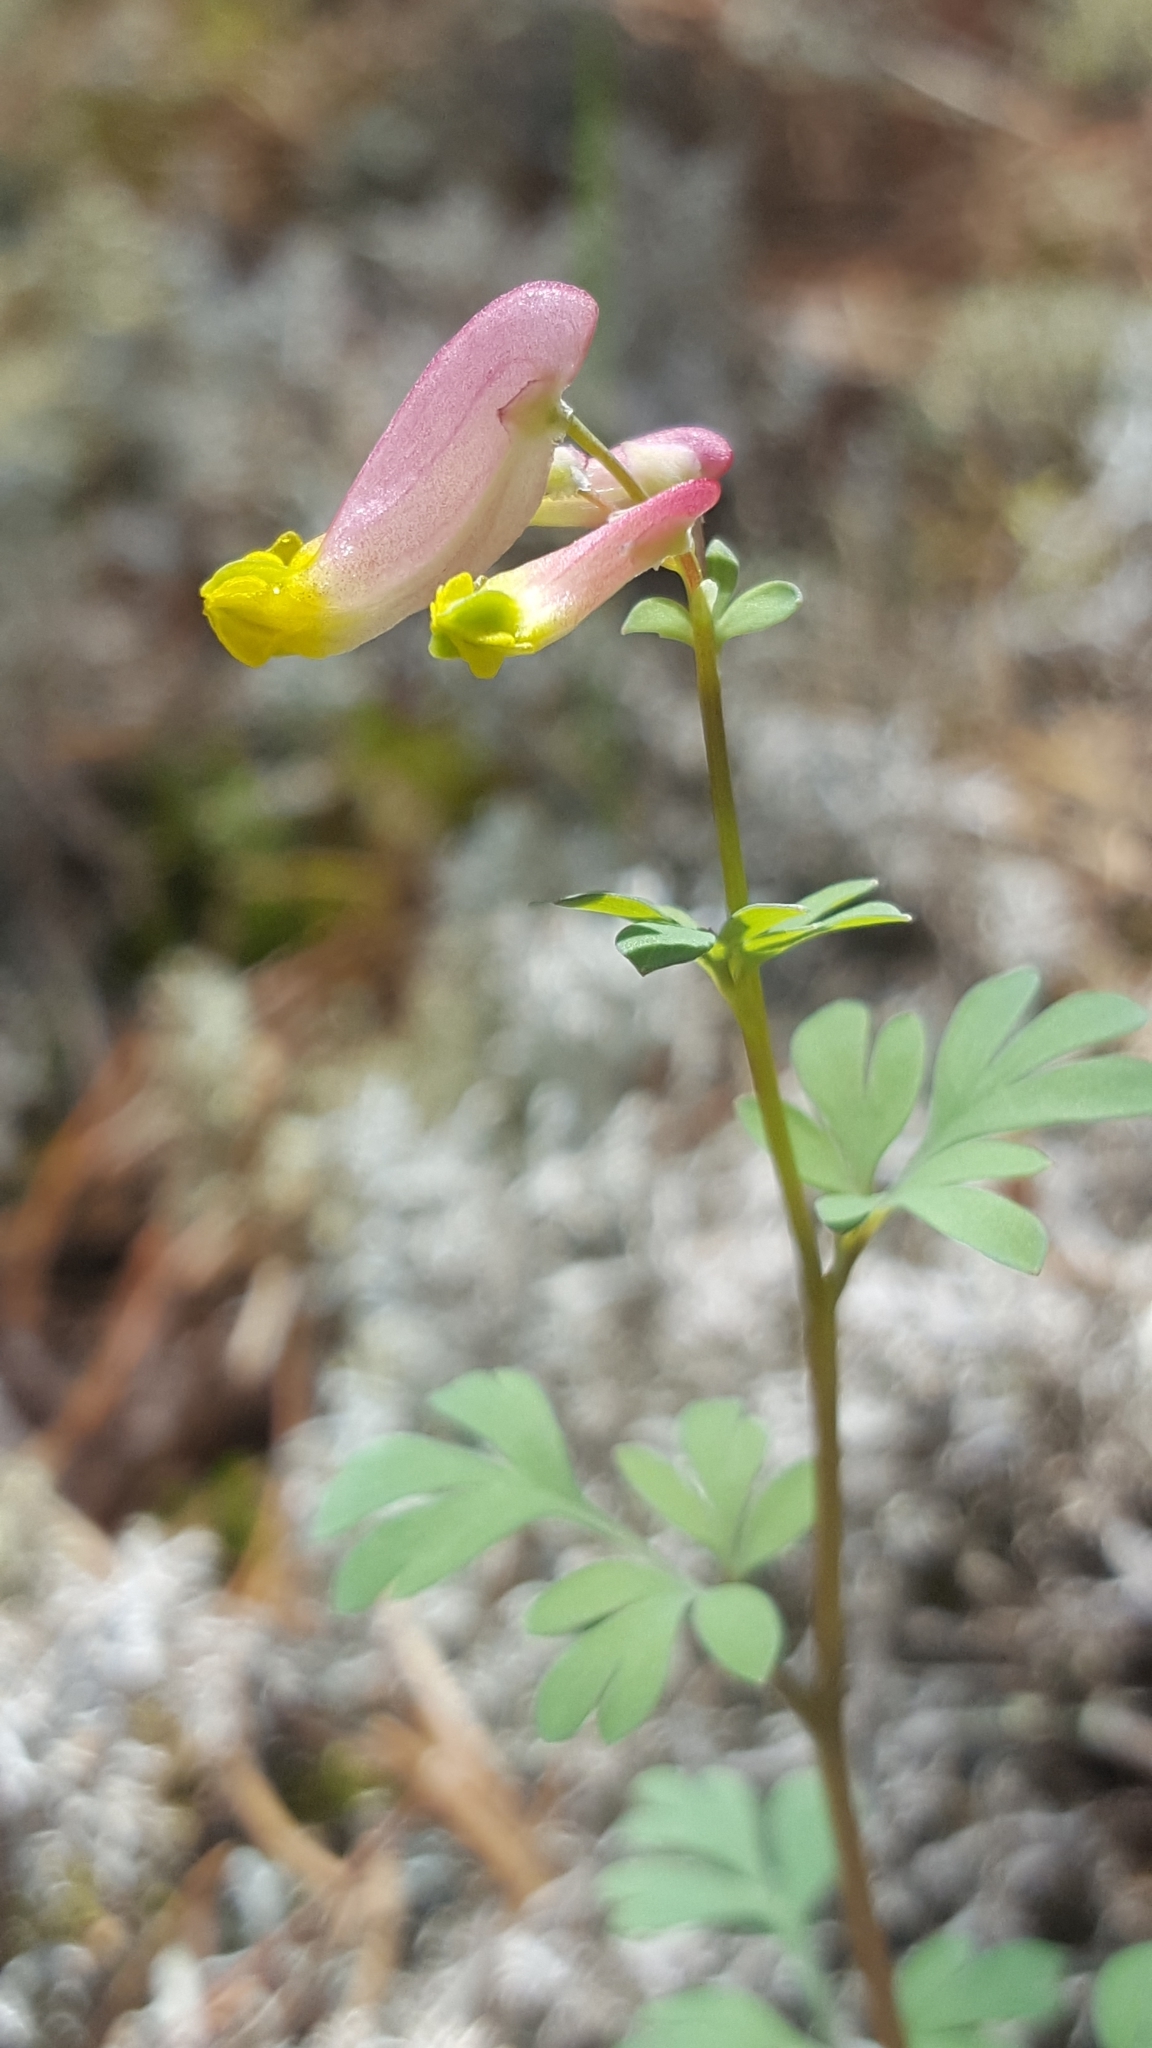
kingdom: Plantae
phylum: Tracheophyta
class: Magnoliopsida
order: Ranunculales
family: Papaveraceae
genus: Capnoides
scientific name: Capnoides sempervirens
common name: Rock harlequin
